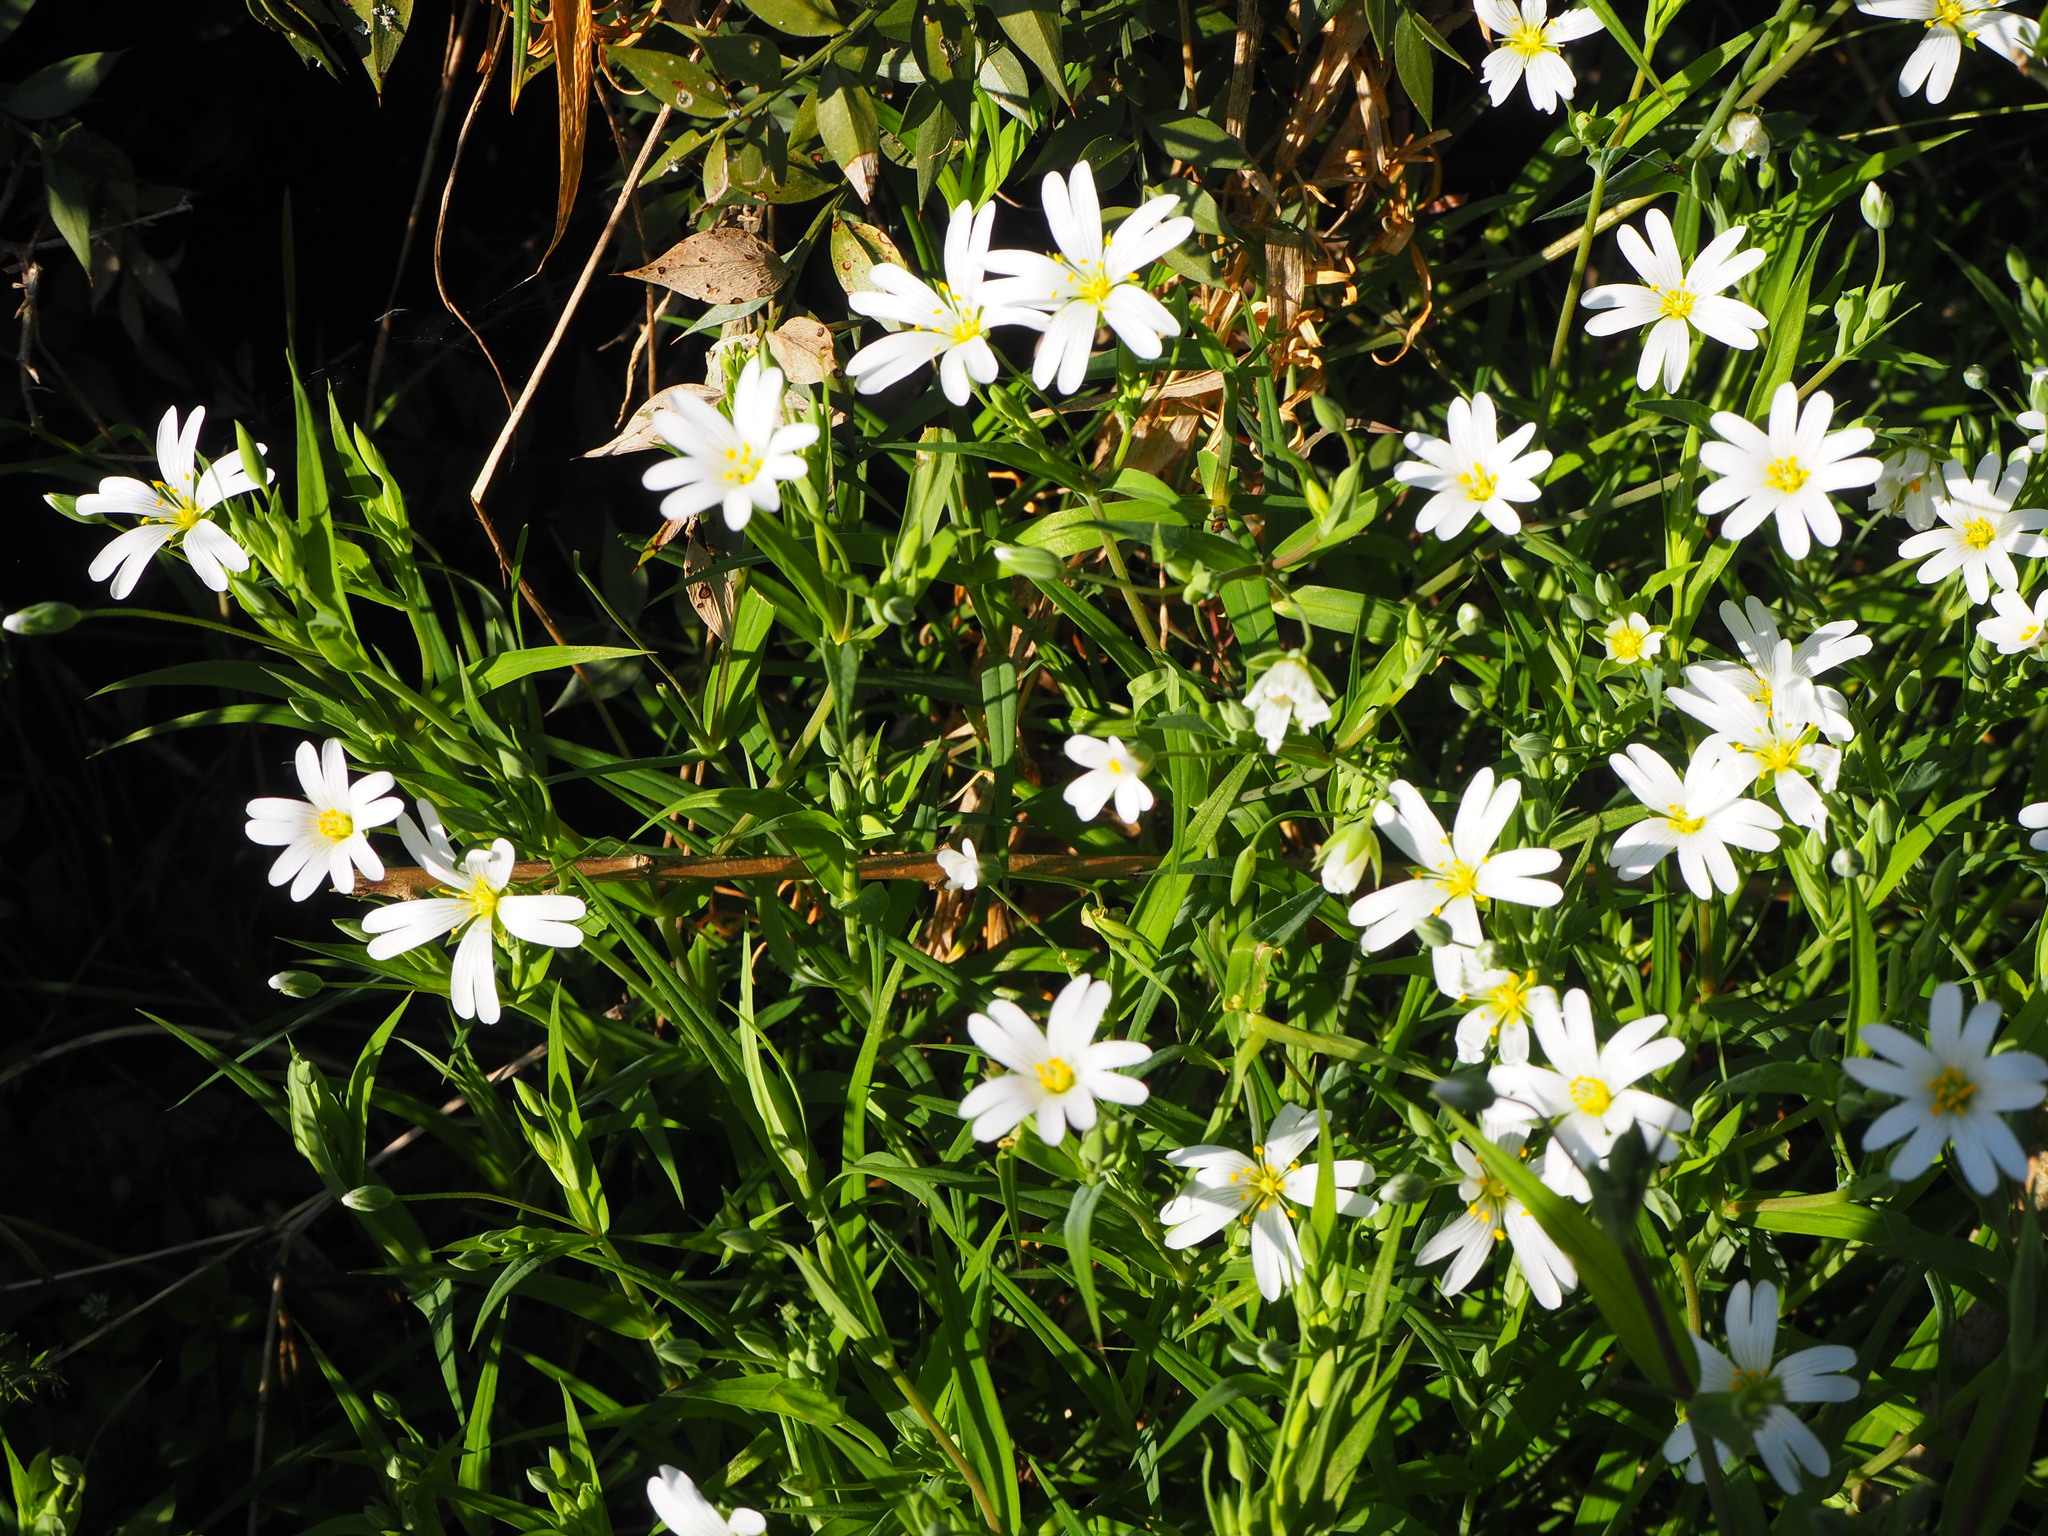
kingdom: Plantae
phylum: Tracheophyta
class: Magnoliopsida
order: Caryophyllales
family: Caryophyllaceae
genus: Rabelera
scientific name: Rabelera holostea
